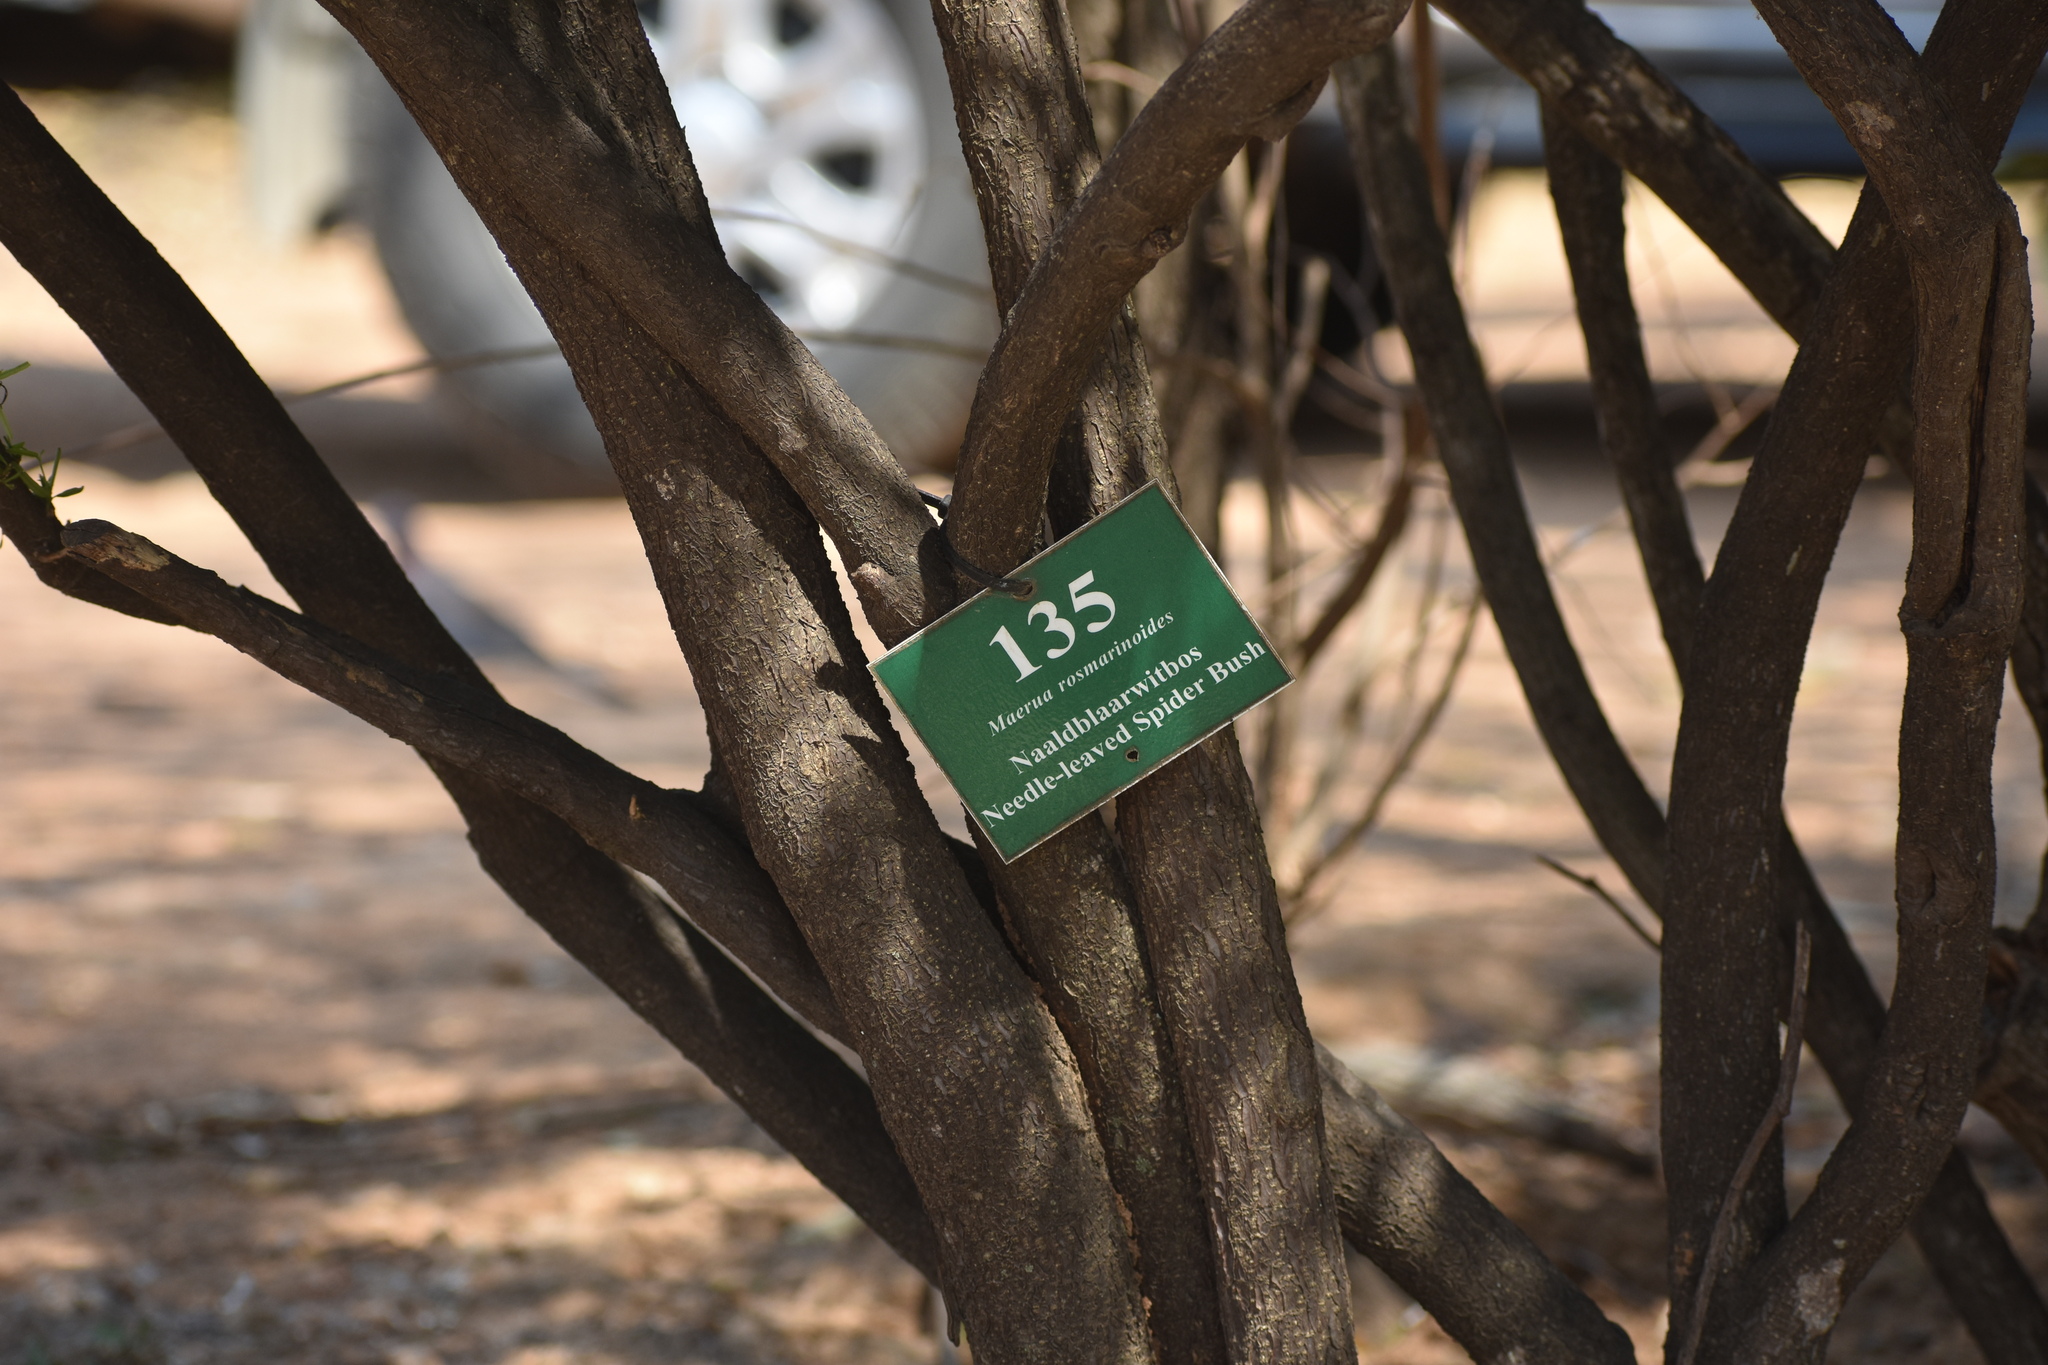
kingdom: Plantae
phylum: Tracheophyta
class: Magnoliopsida
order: Brassicales
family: Capparaceae
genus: Maerua
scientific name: Maerua rosmarinoides
